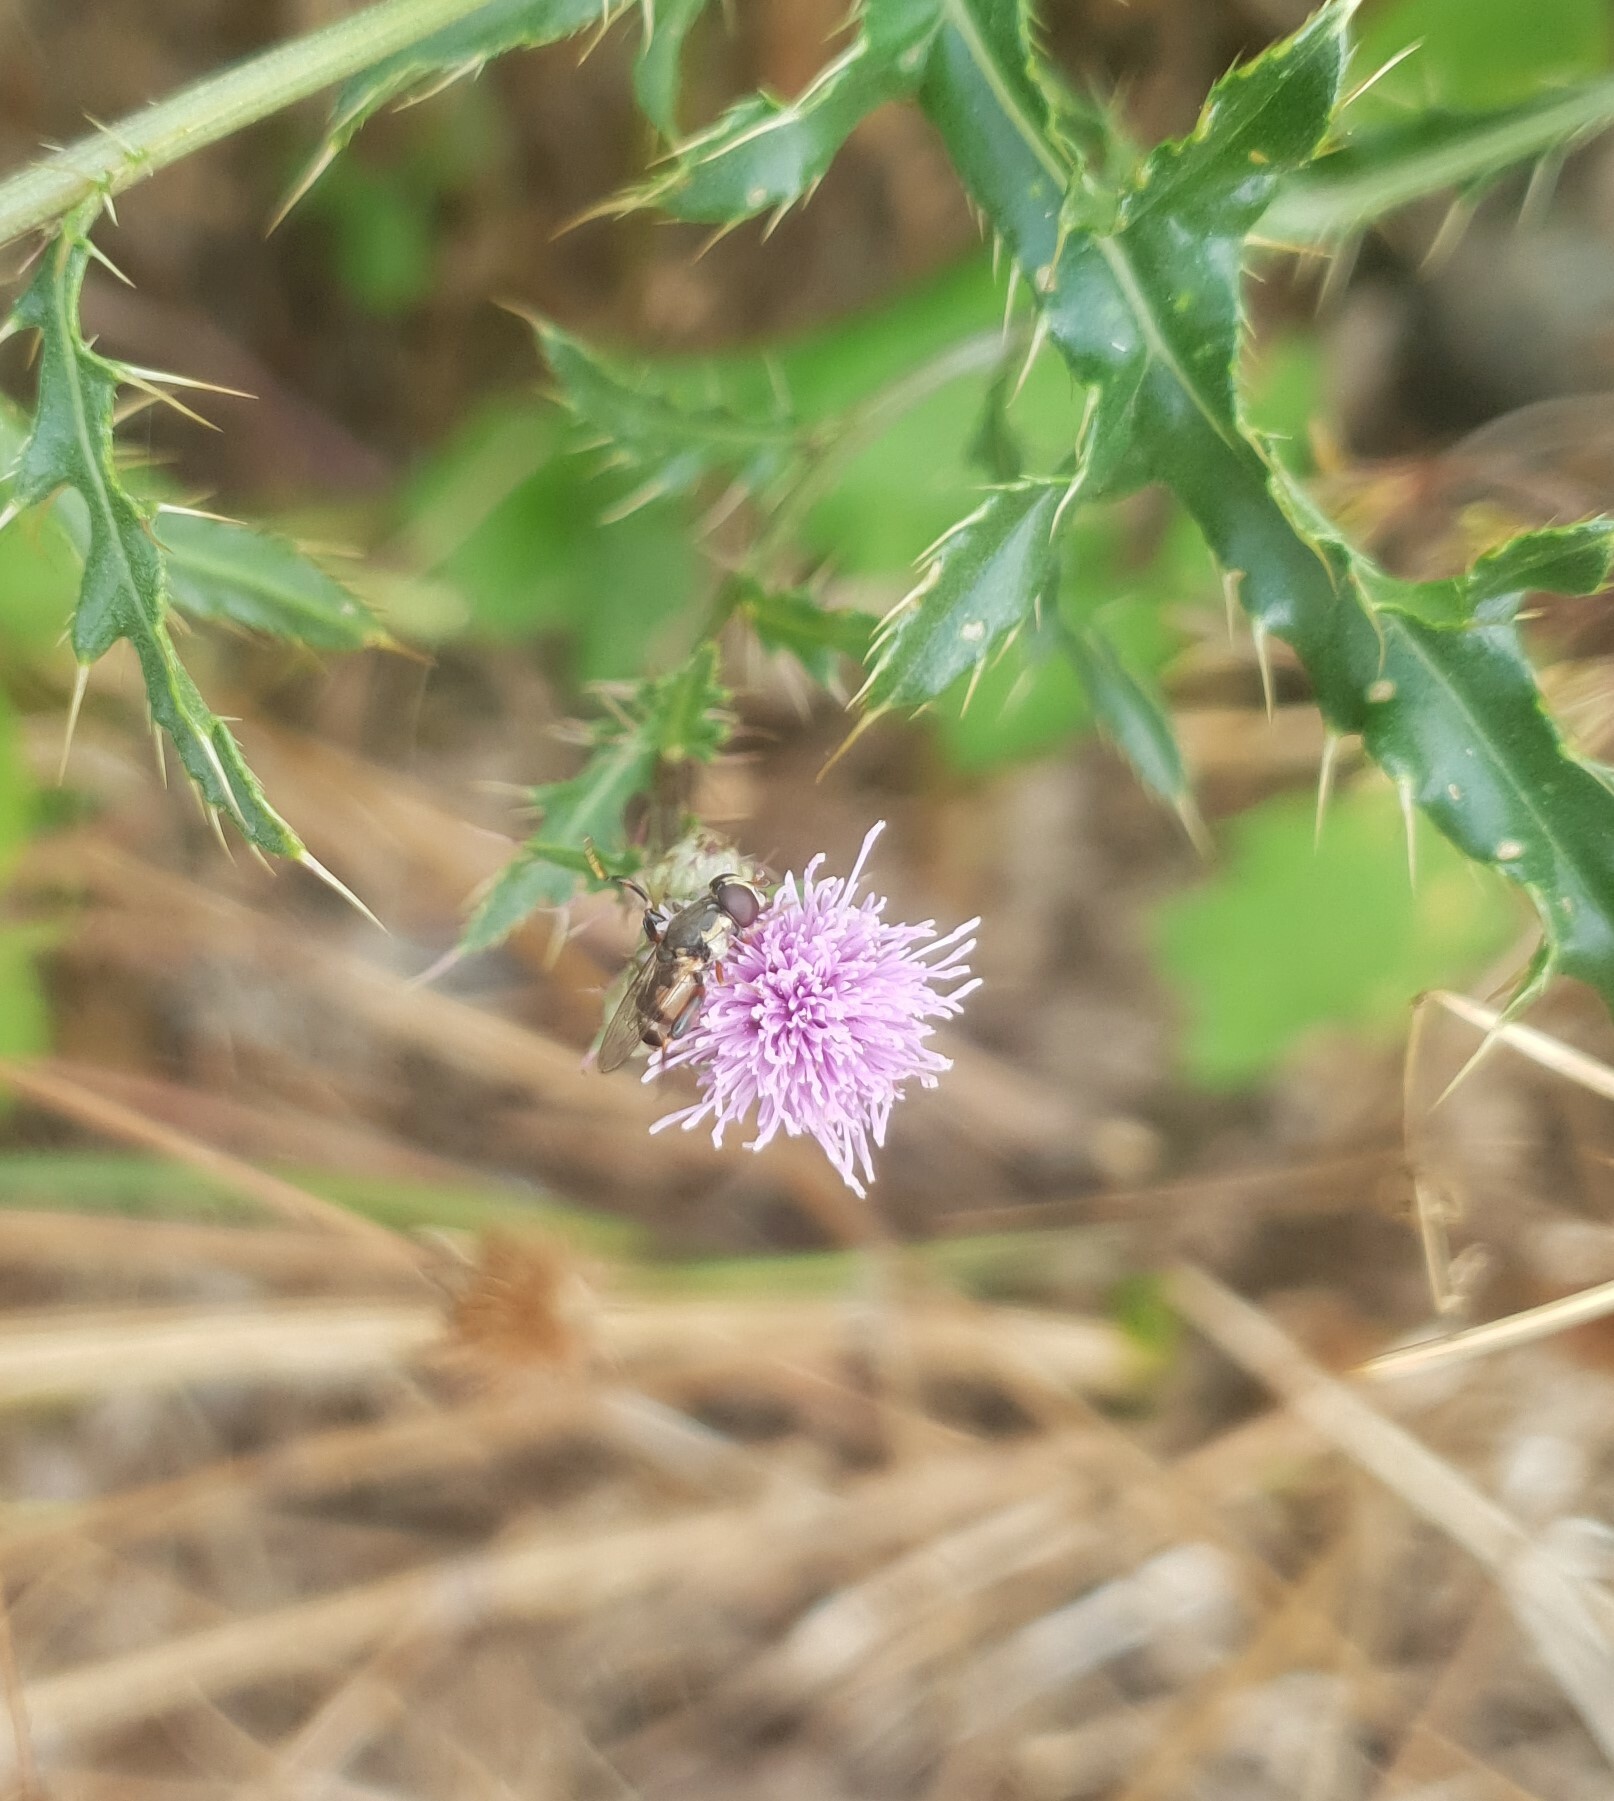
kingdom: Animalia
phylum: Arthropoda
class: Insecta
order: Diptera
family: Syrphidae
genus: Syritta
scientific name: Syritta pipiens
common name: Hover fly
